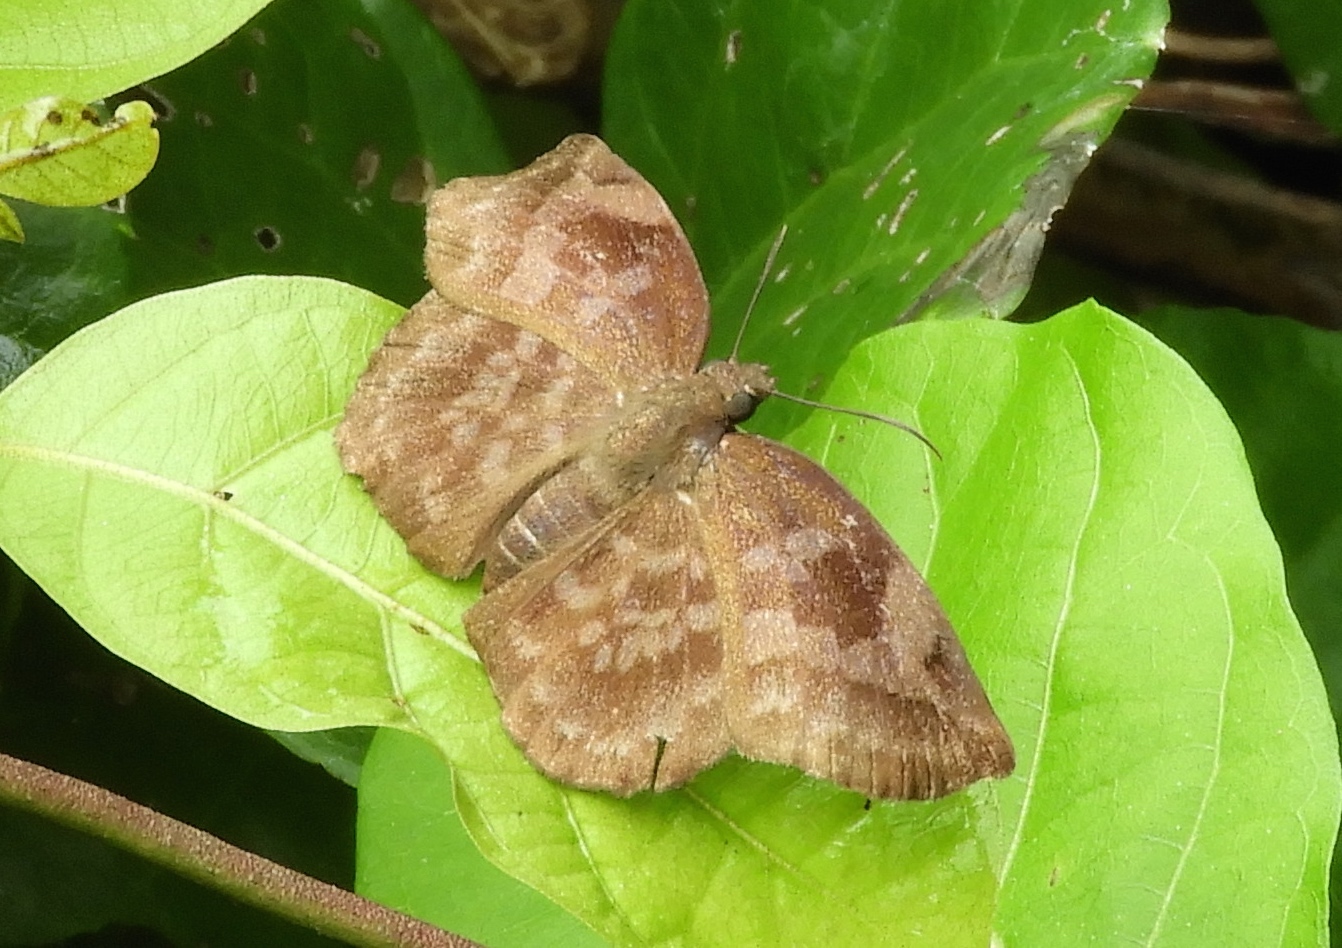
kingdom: Animalia
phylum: Arthropoda
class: Insecta
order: Lepidoptera
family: Hesperiidae
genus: Achlyodes
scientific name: Achlyodes thraso
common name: Sickle-winged skipper
